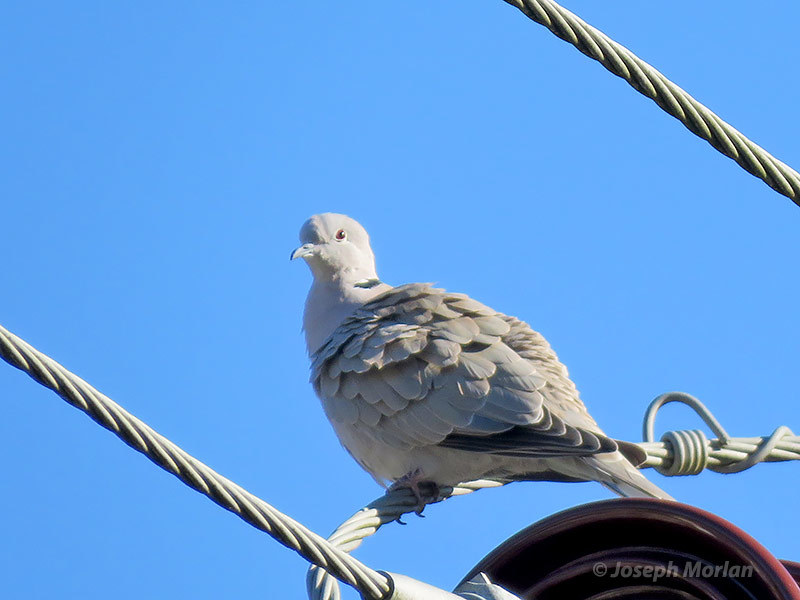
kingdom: Animalia
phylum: Chordata
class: Aves
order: Columbiformes
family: Columbidae
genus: Streptopelia
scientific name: Streptopelia decaocto
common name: Eurasian collared dove
